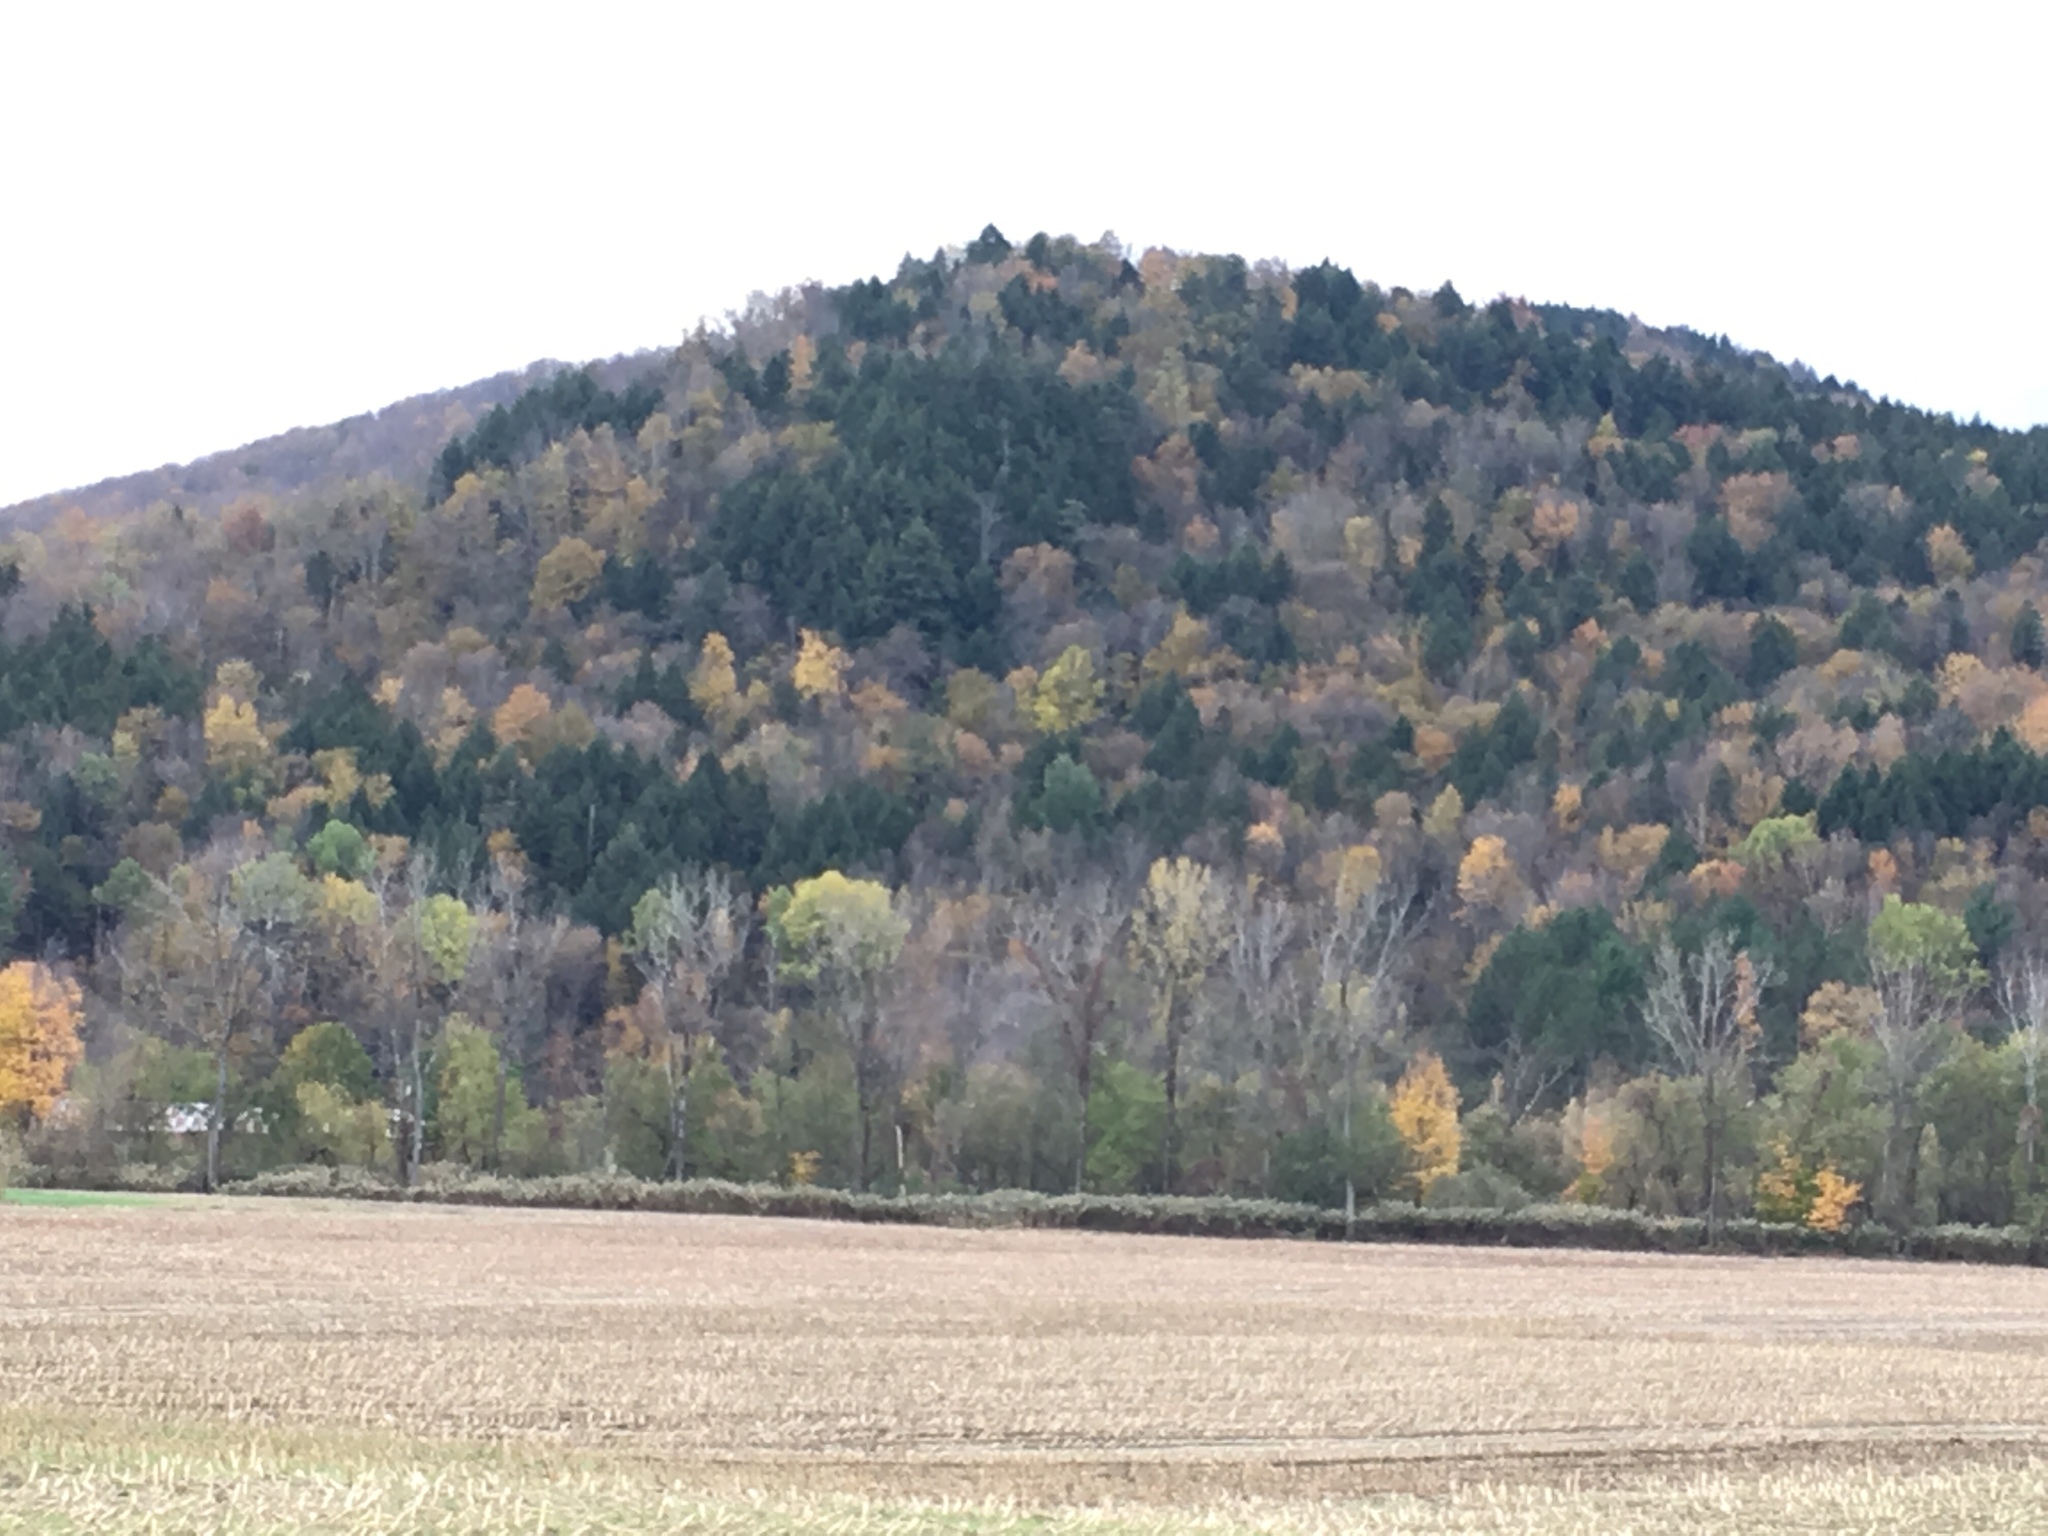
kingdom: Plantae
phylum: Tracheophyta
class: Pinopsida
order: Pinales
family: Pinaceae
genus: Tsuga
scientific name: Tsuga canadensis
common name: Eastern hemlock
